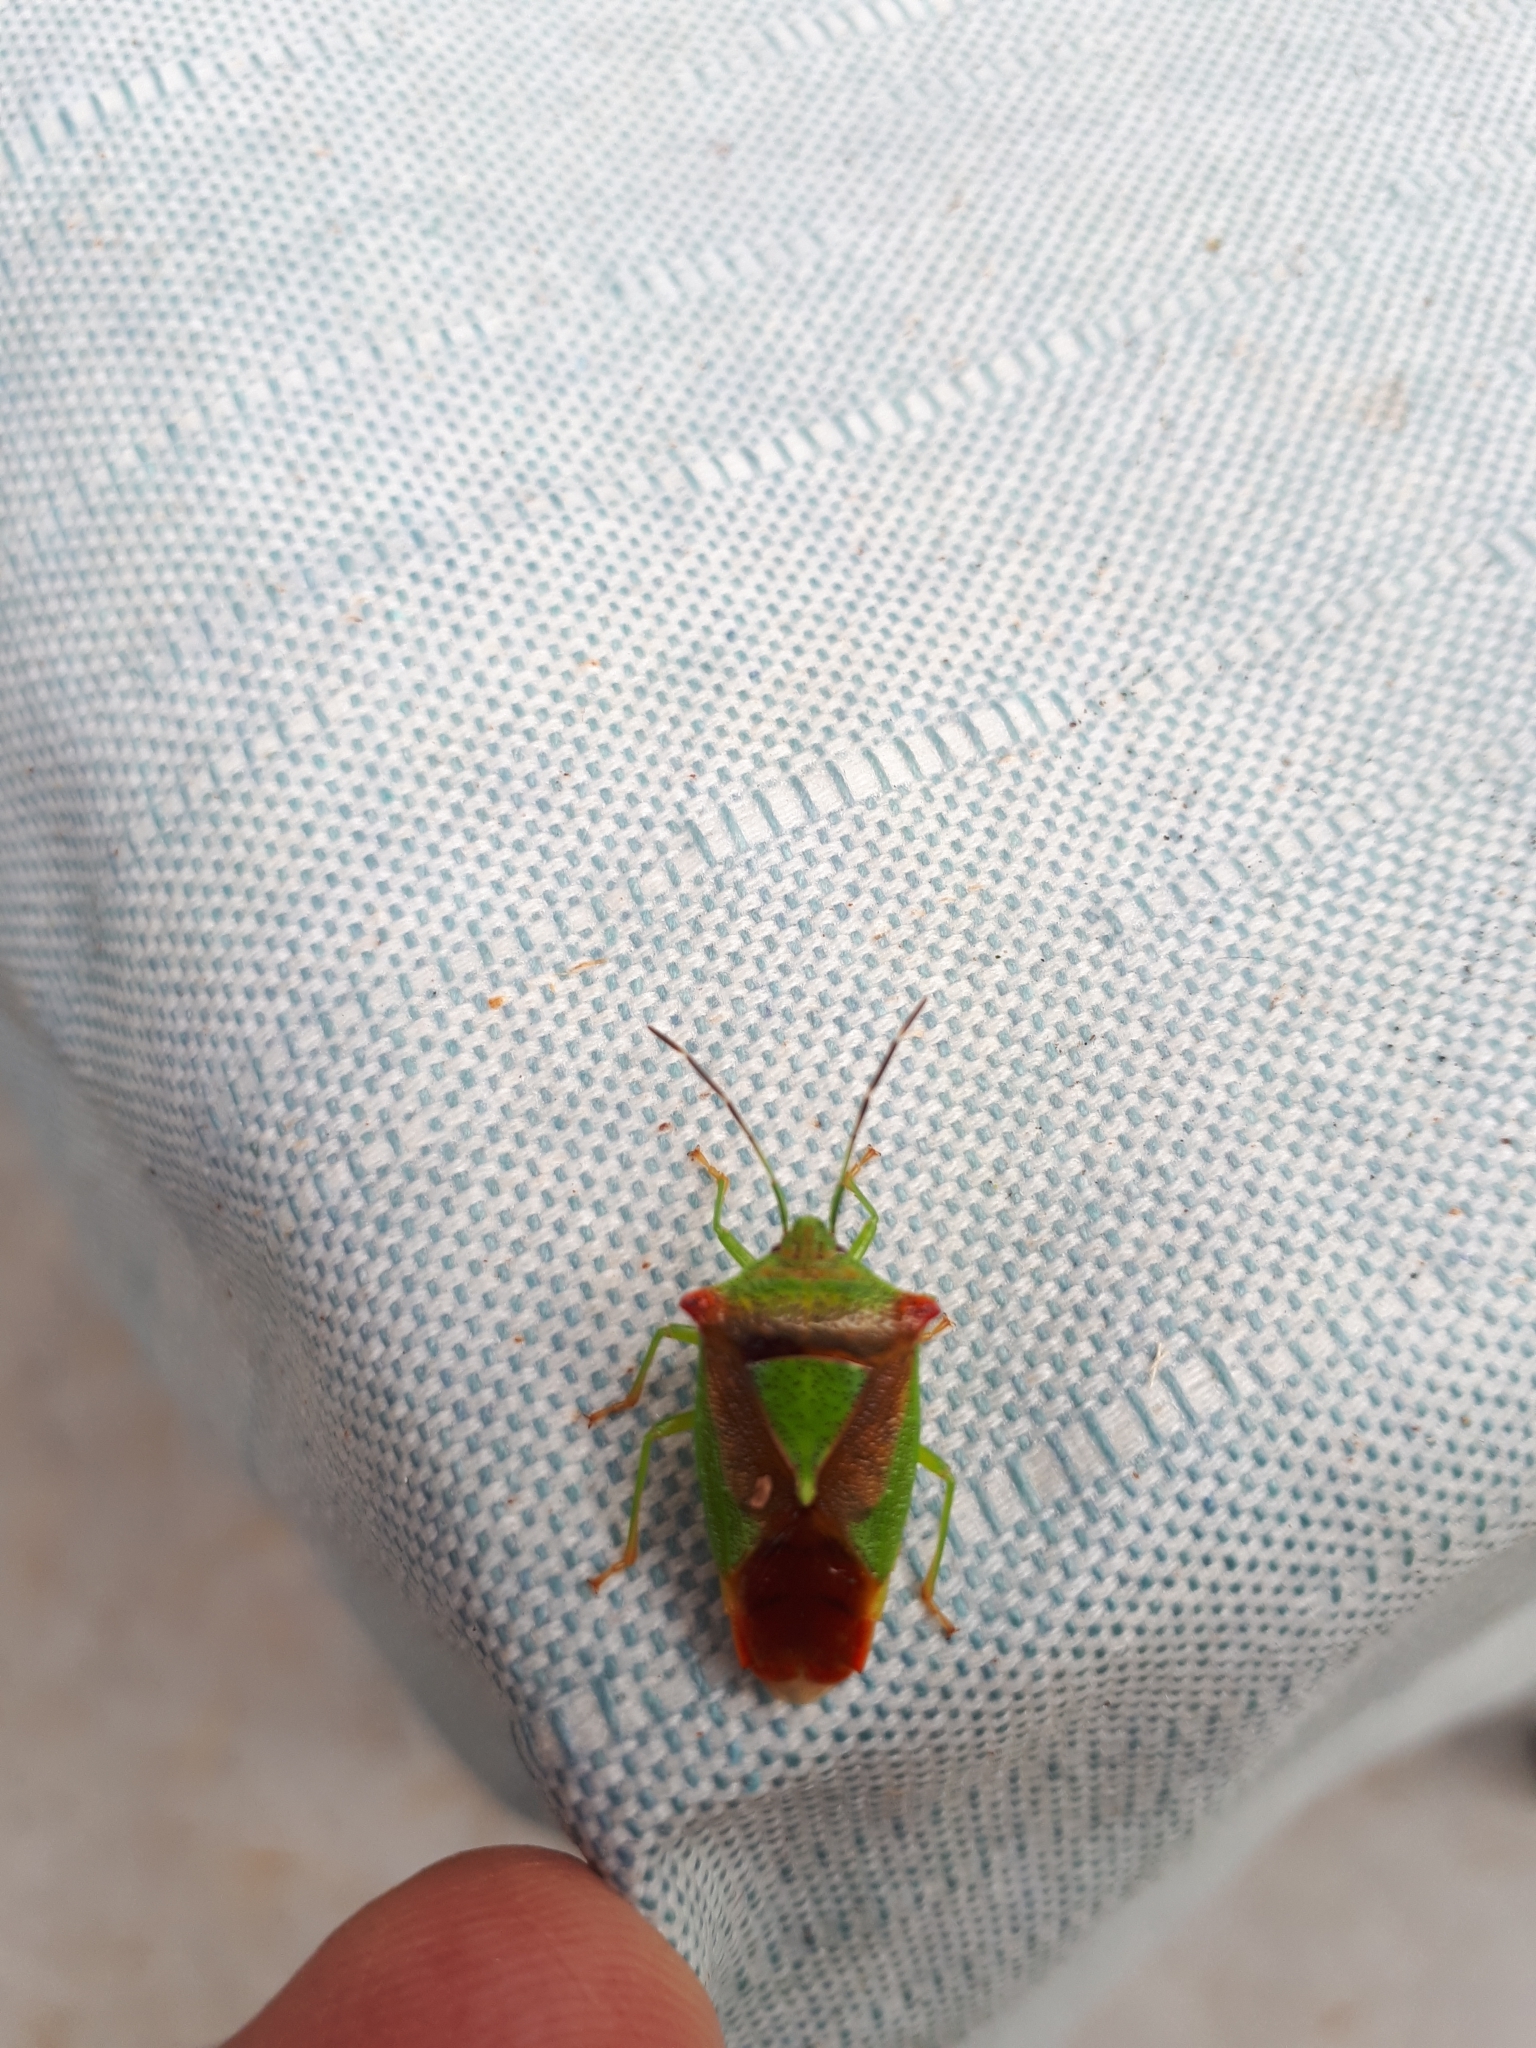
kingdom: Animalia
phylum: Arthropoda
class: Insecta
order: Hemiptera
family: Acanthosomatidae
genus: Acanthosoma
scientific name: Acanthosoma haemorrhoidale
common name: Hawthorn shieldbug
